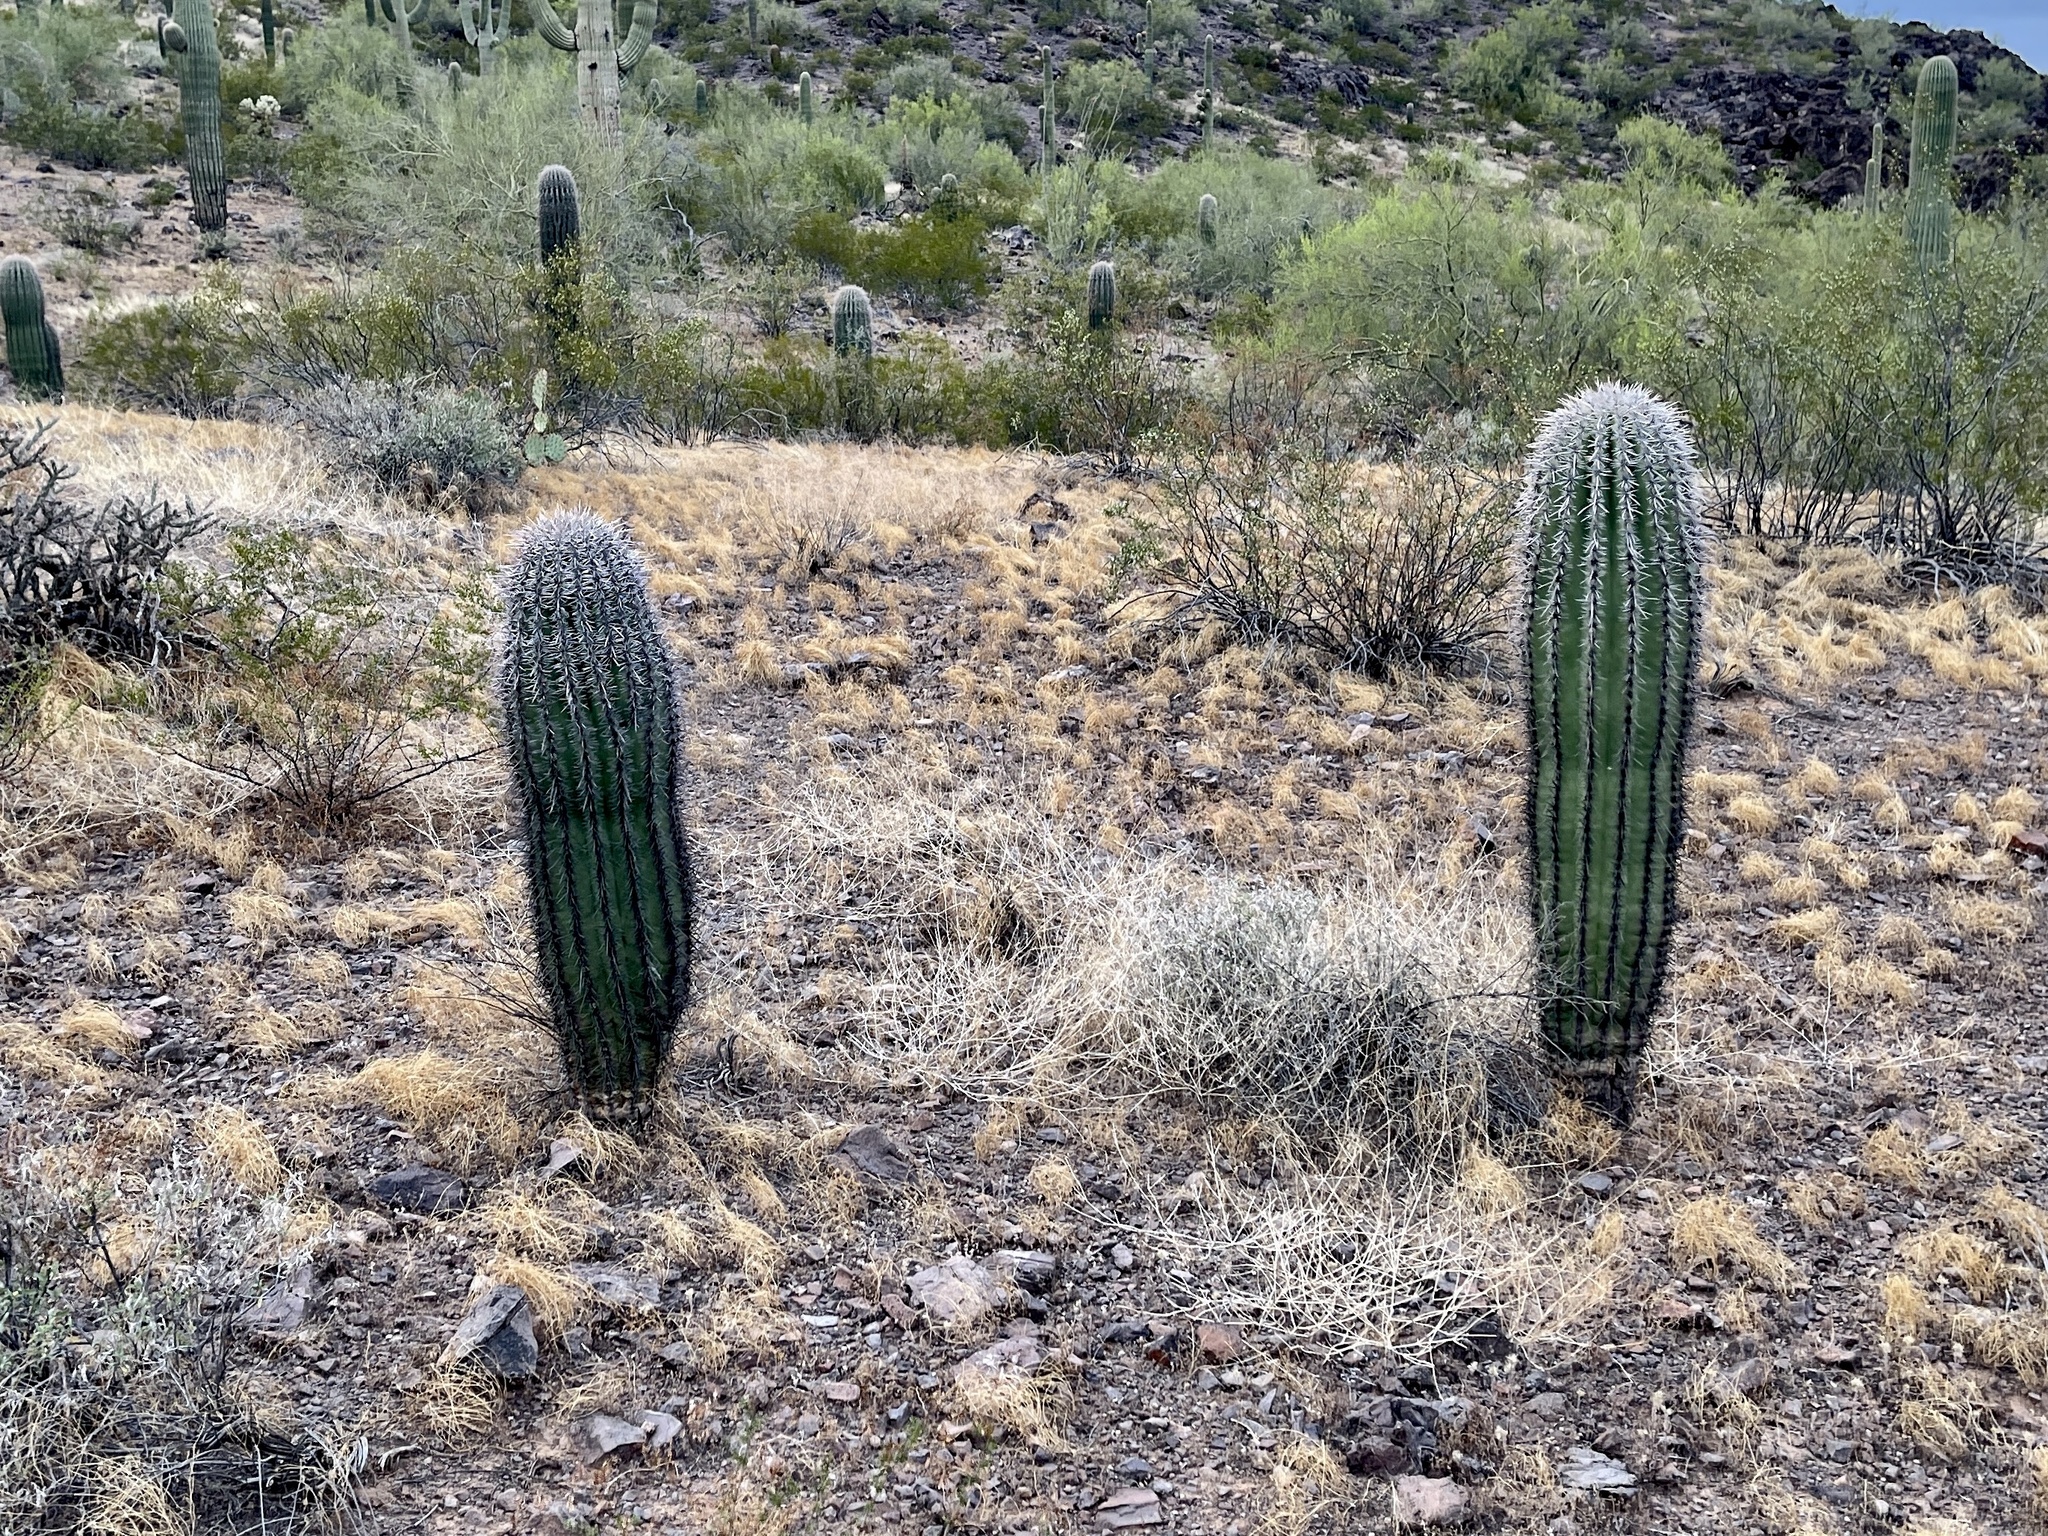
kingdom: Plantae
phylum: Tracheophyta
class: Magnoliopsida
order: Caryophyllales
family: Cactaceae
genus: Carnegiea
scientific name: Carnegiea gigantea
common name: Saguaro
